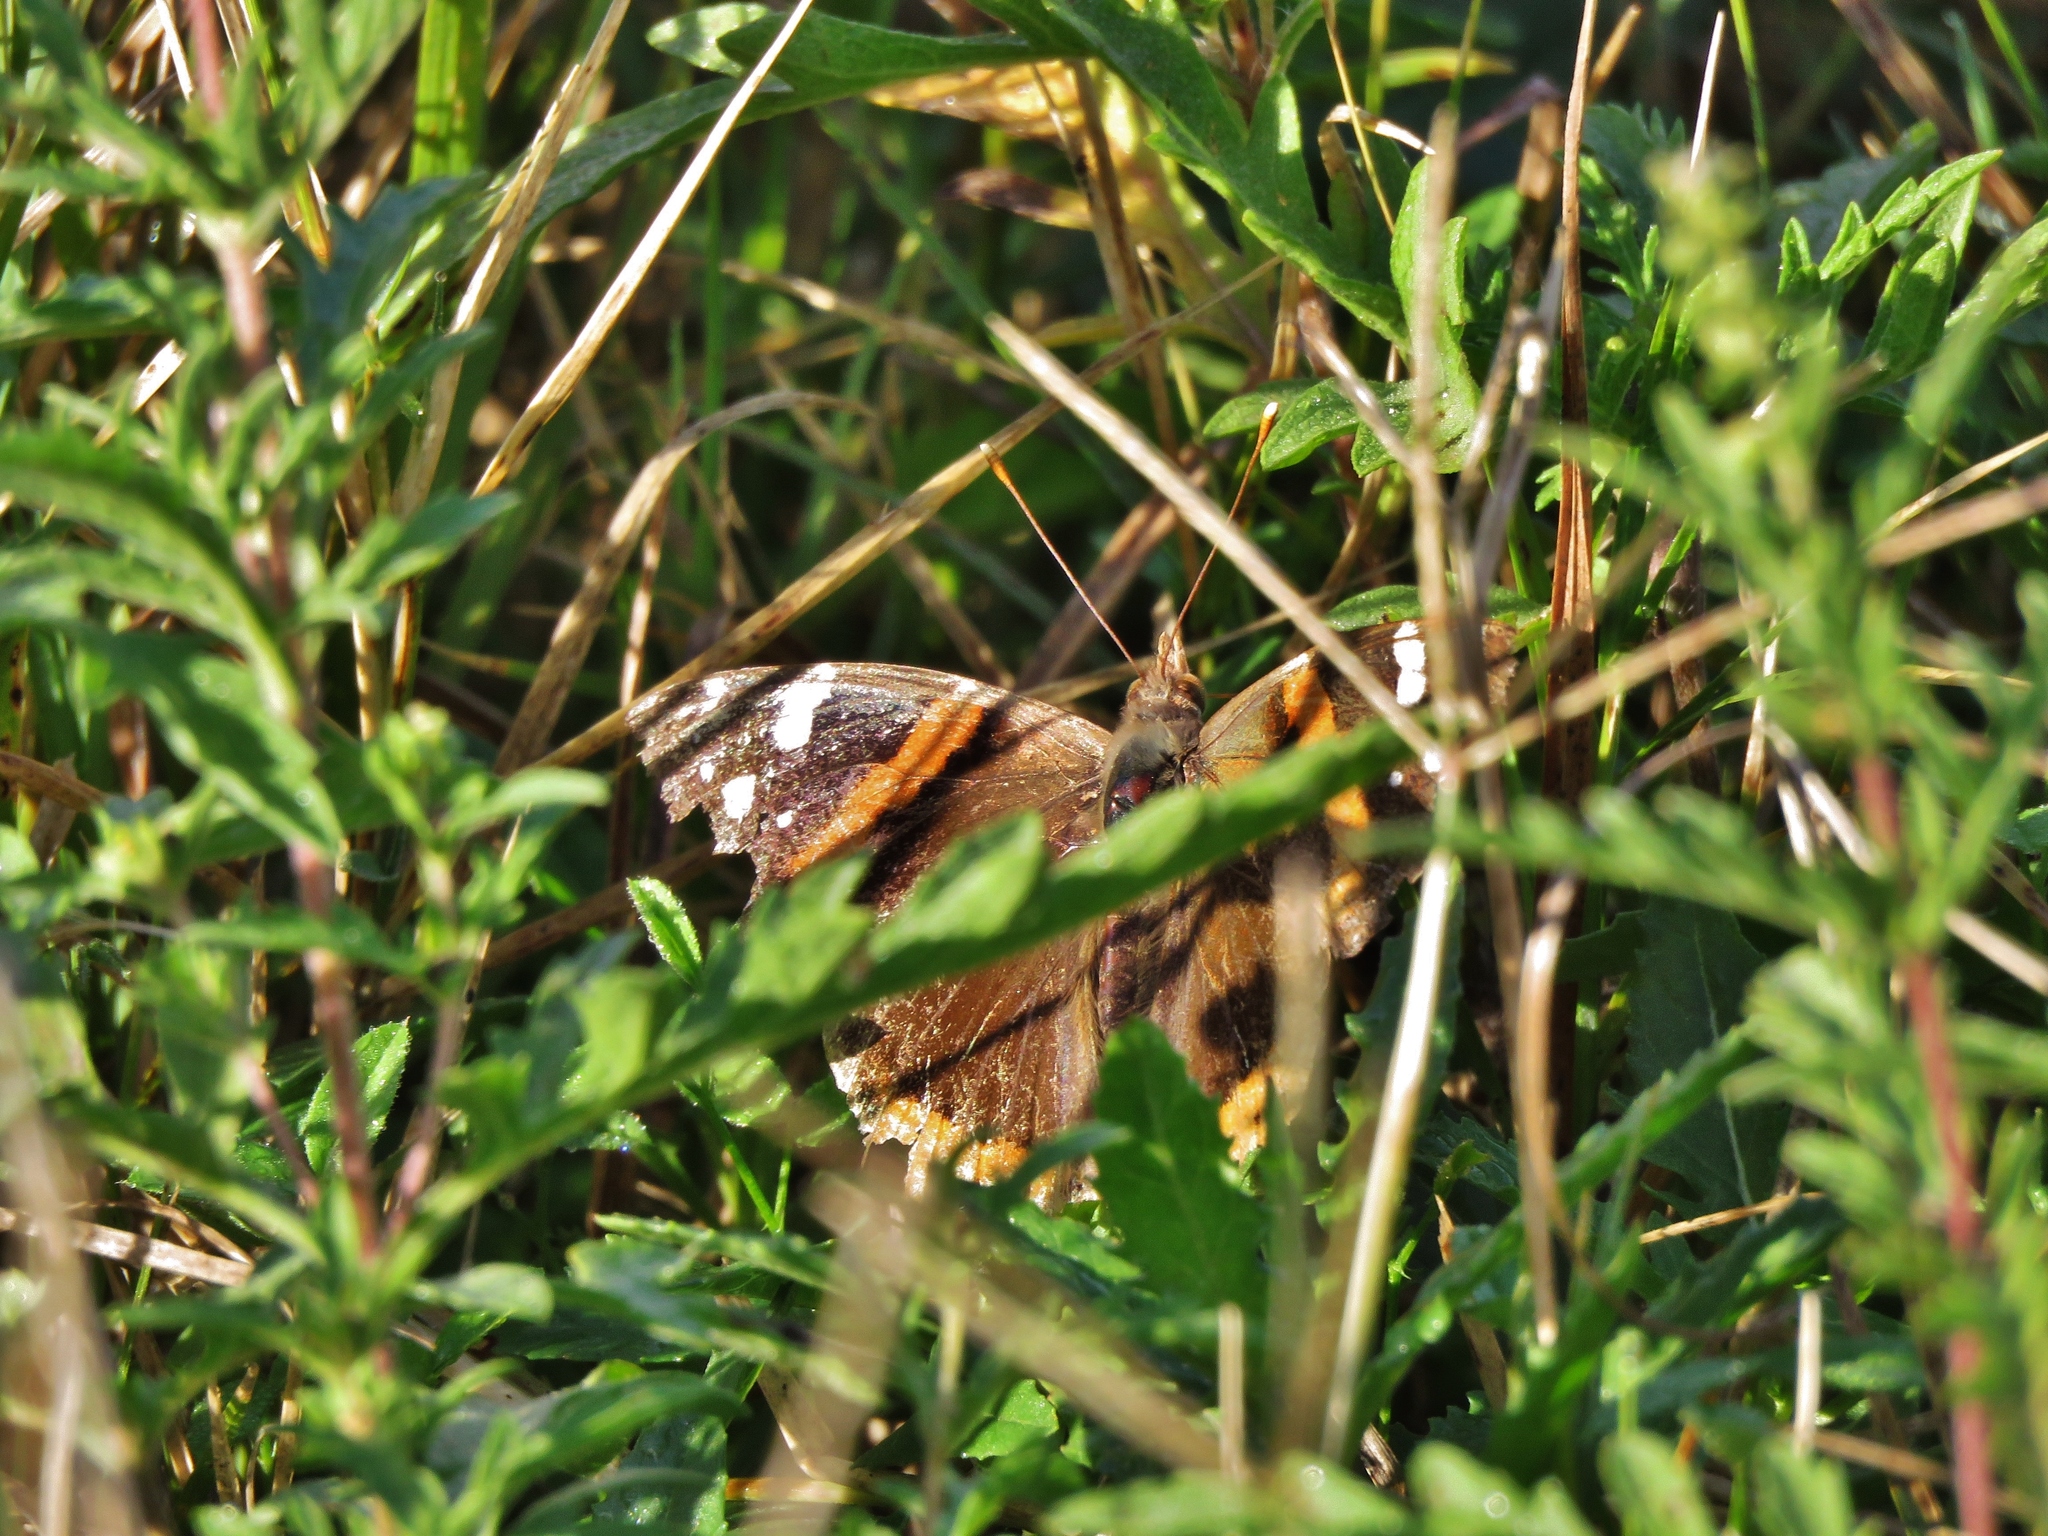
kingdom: Animalia
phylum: Arthropoda
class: Insecta
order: Lepidoptera
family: Nymphalidae
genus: Vanessa
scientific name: Vanessa atalanta
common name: Red admiral
